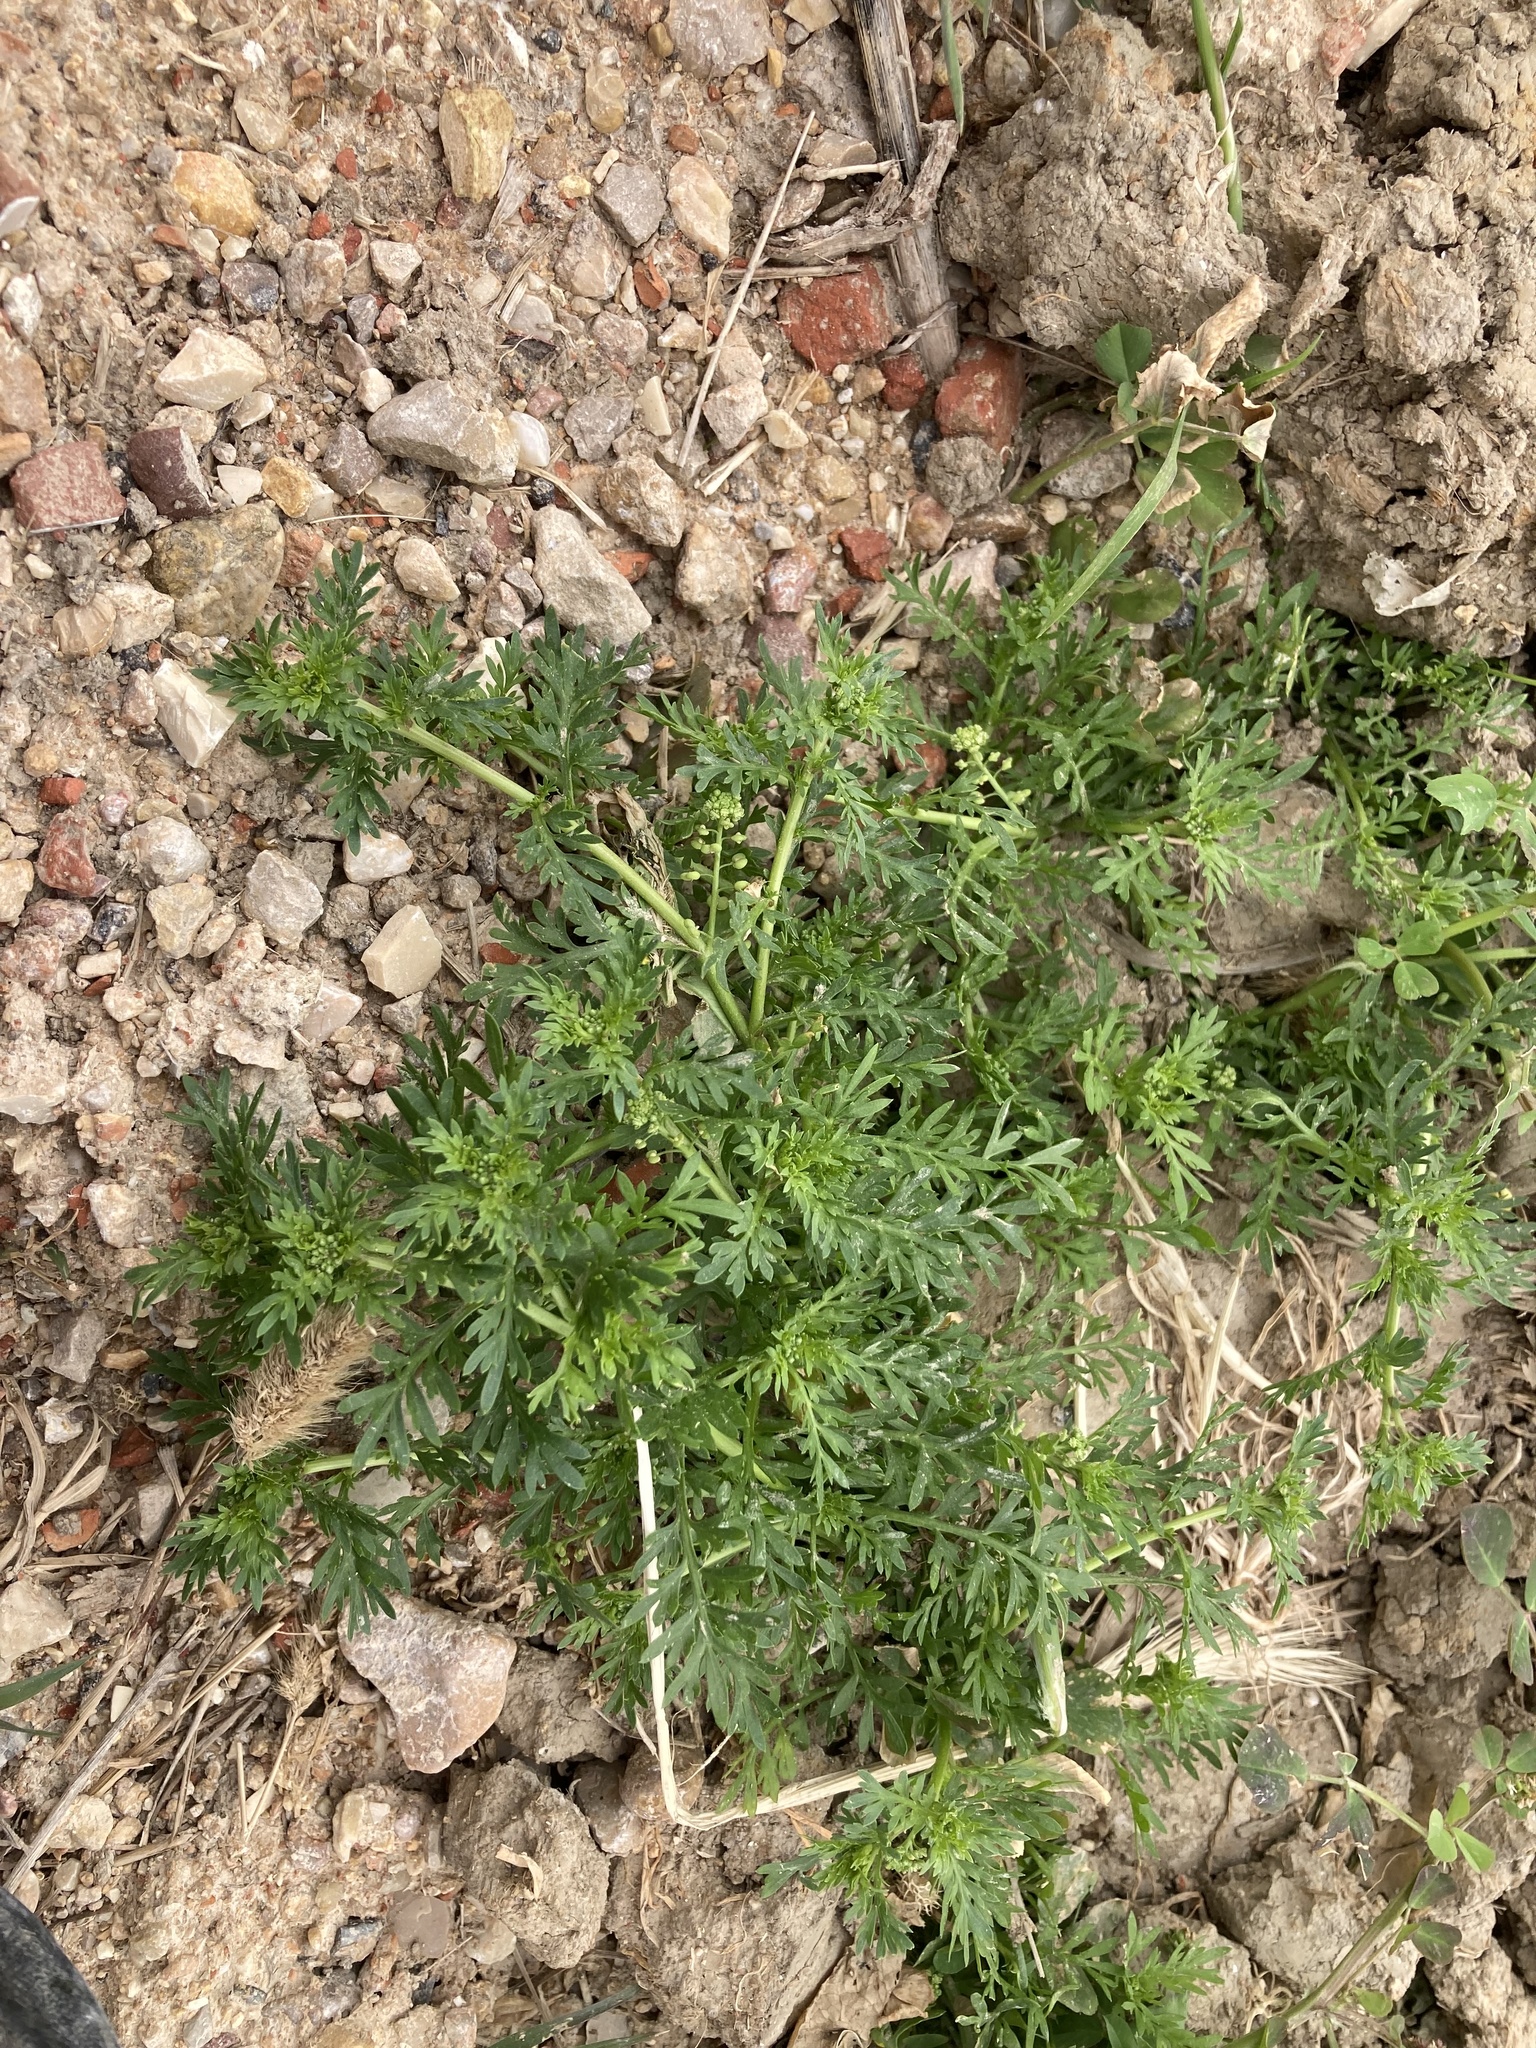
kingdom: Plantae
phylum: Tracheophyta
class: Magnoliopsida
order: Brassicales
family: Brassicaceae
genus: Lepidium
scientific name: Lepidium didymum
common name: Lesser swinecress
